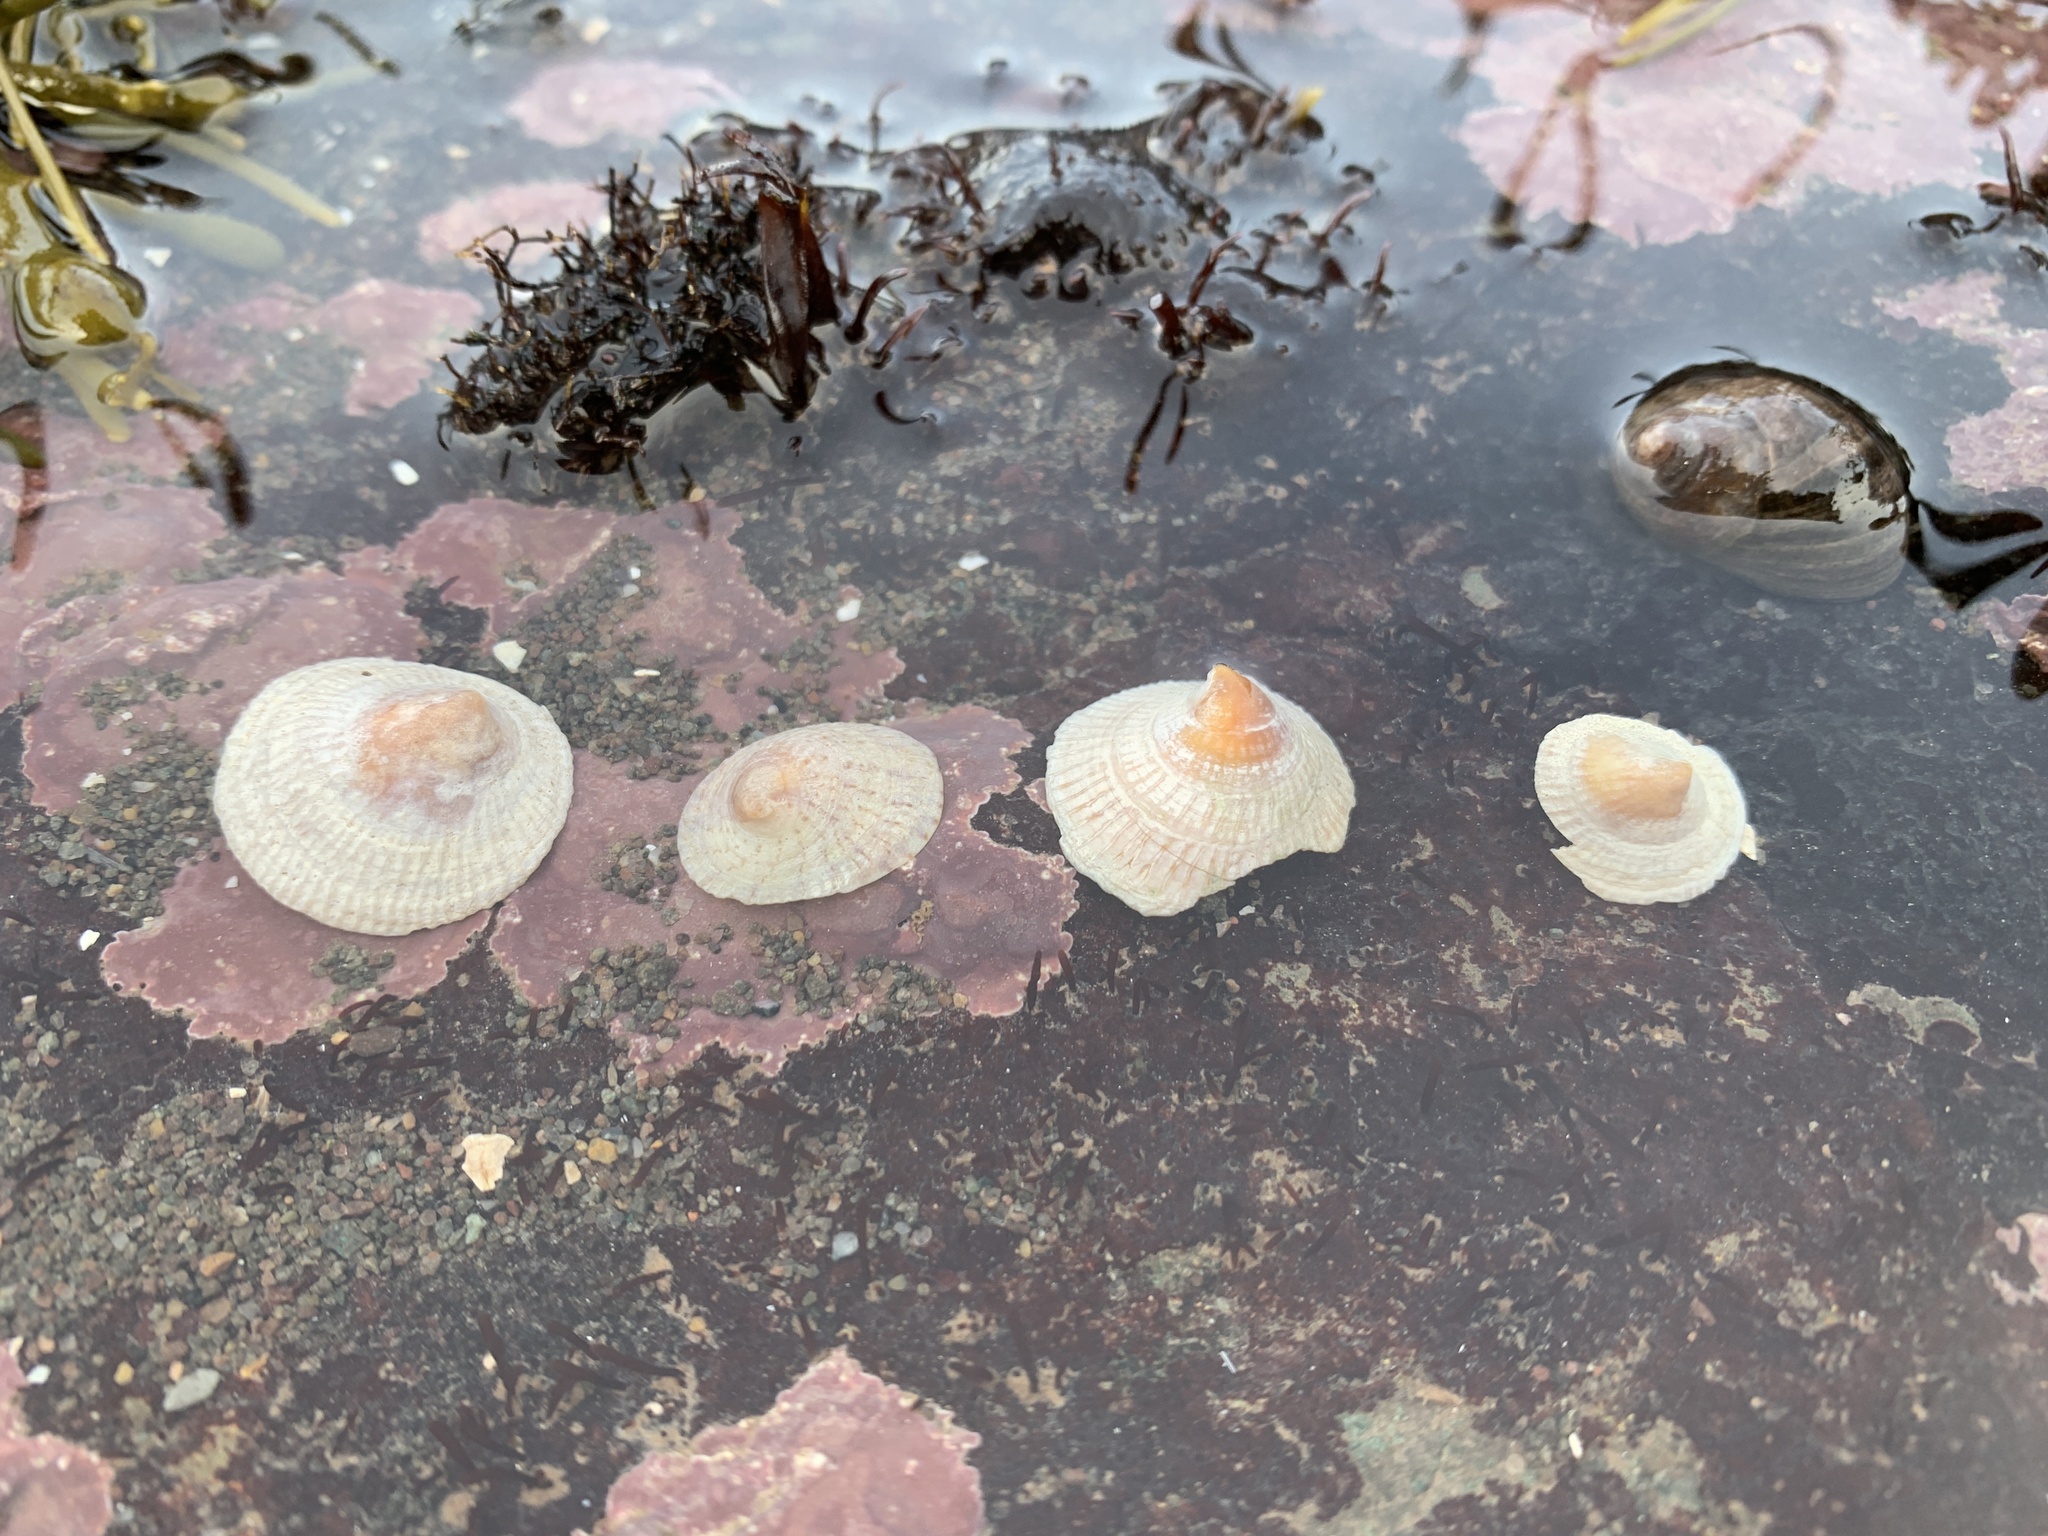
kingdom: Animalia
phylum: Mollusca
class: Gastropoda
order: Littorinimorpha
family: Calyptraeidae
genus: Crucibulum
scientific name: Crucibulum striatum
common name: Striate cup-and -saucer
